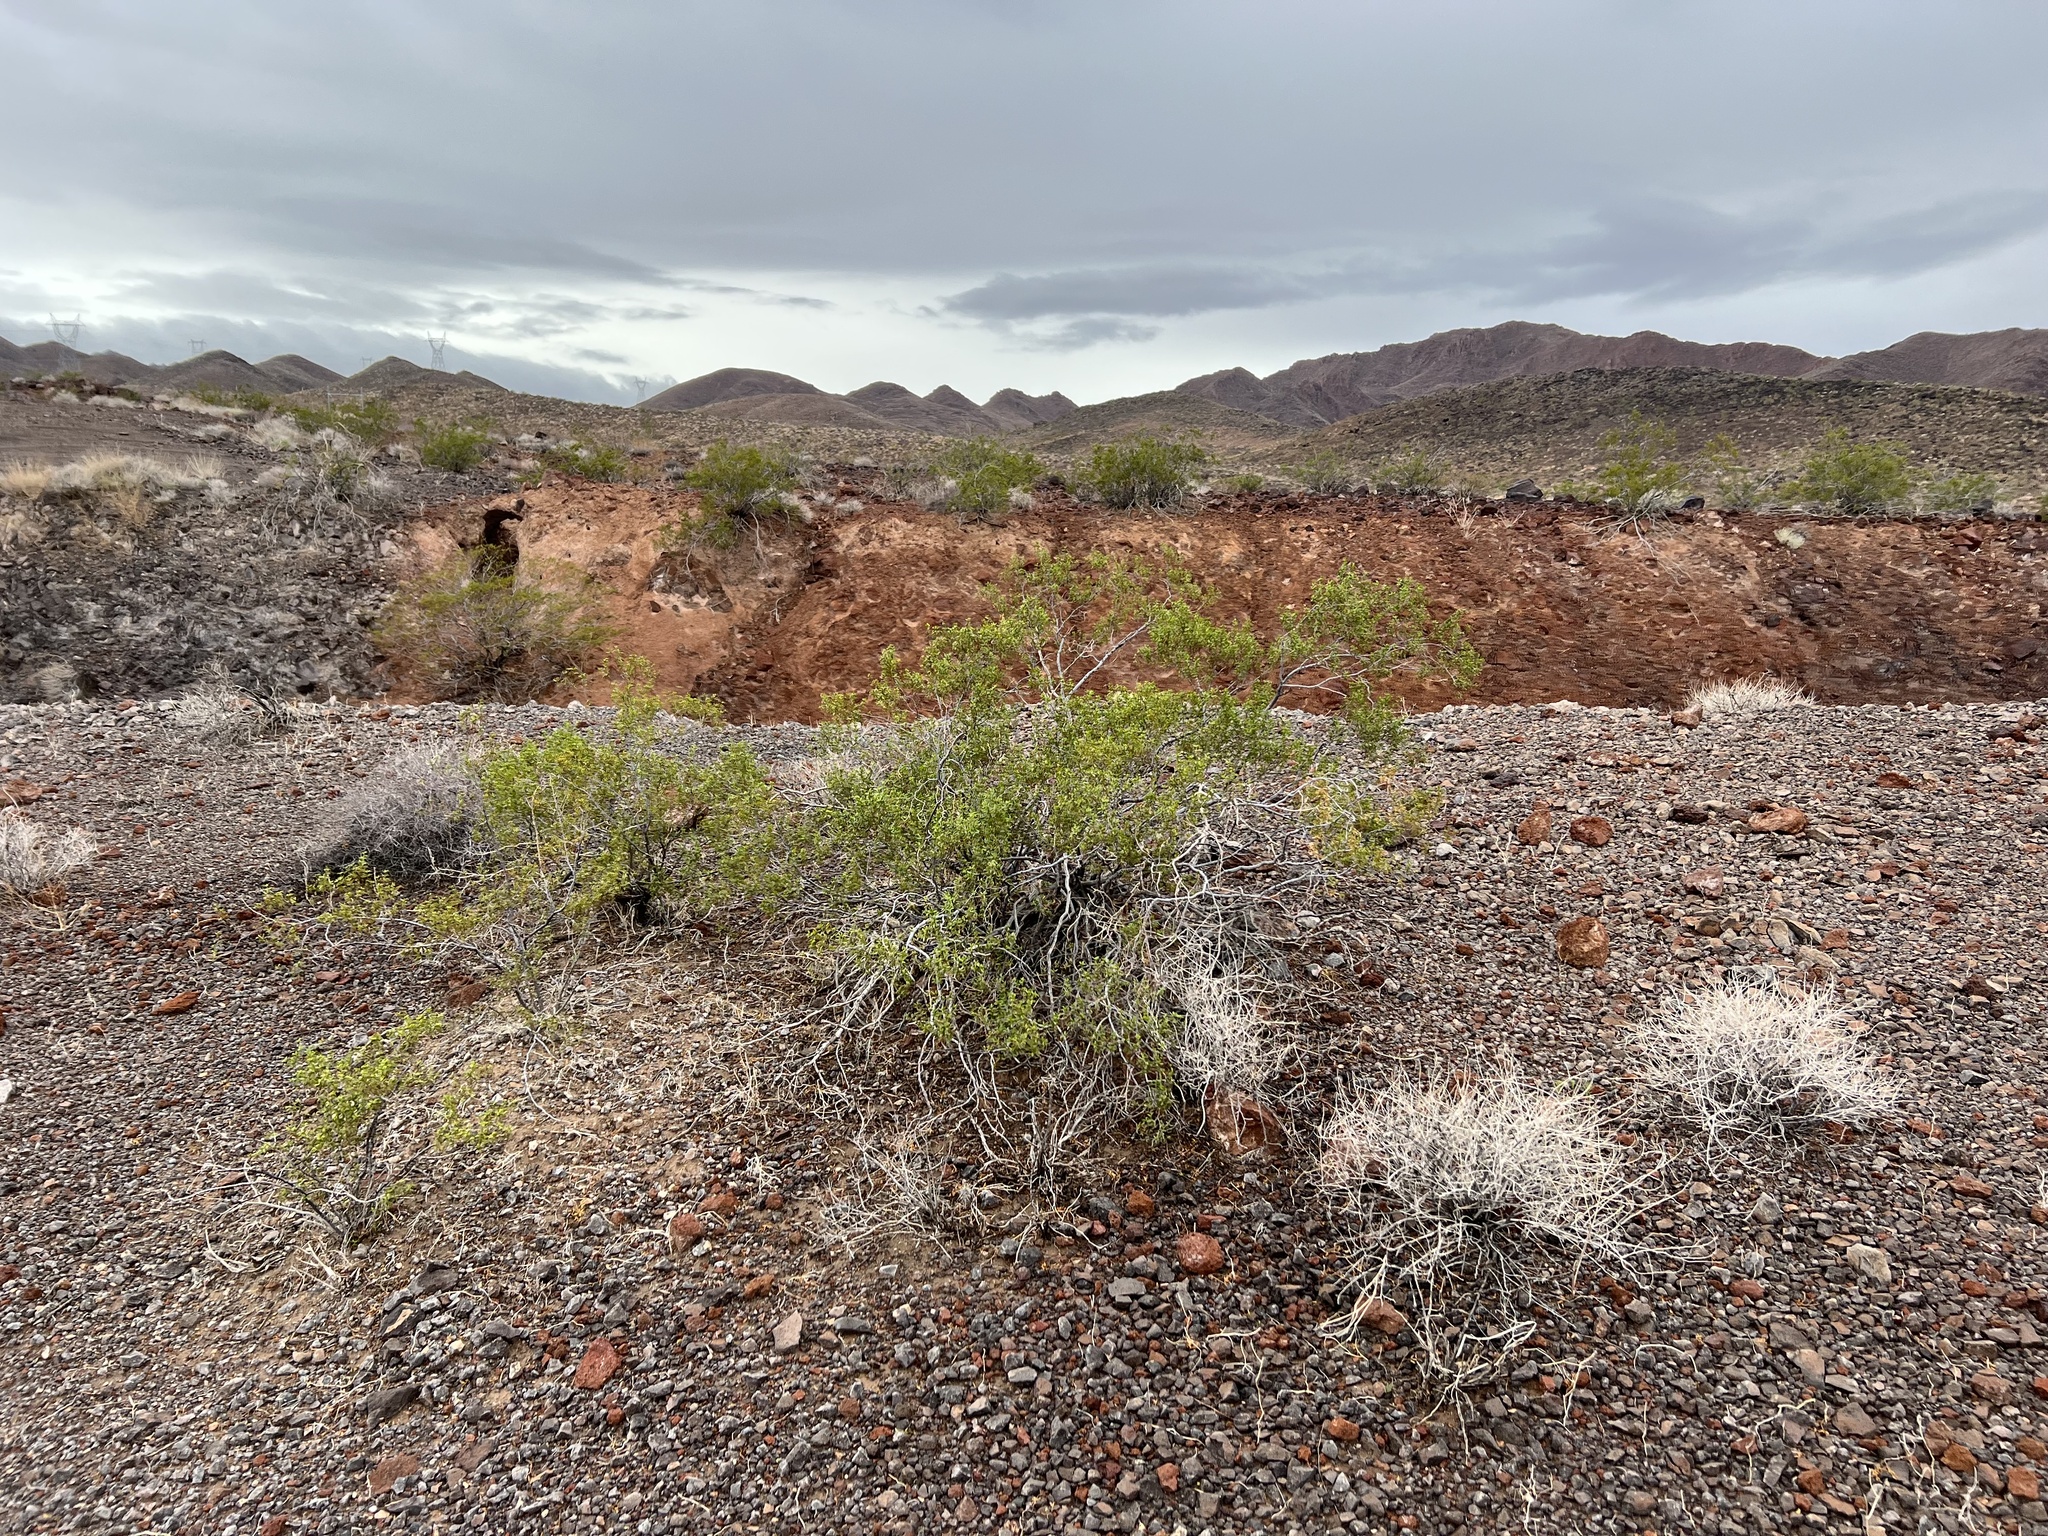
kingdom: Plantae
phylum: Tracheophyta
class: Magnoliopsida
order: Zygophyllales
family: Zygophyllaceae
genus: Larrea
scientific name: Larrea tridentata
